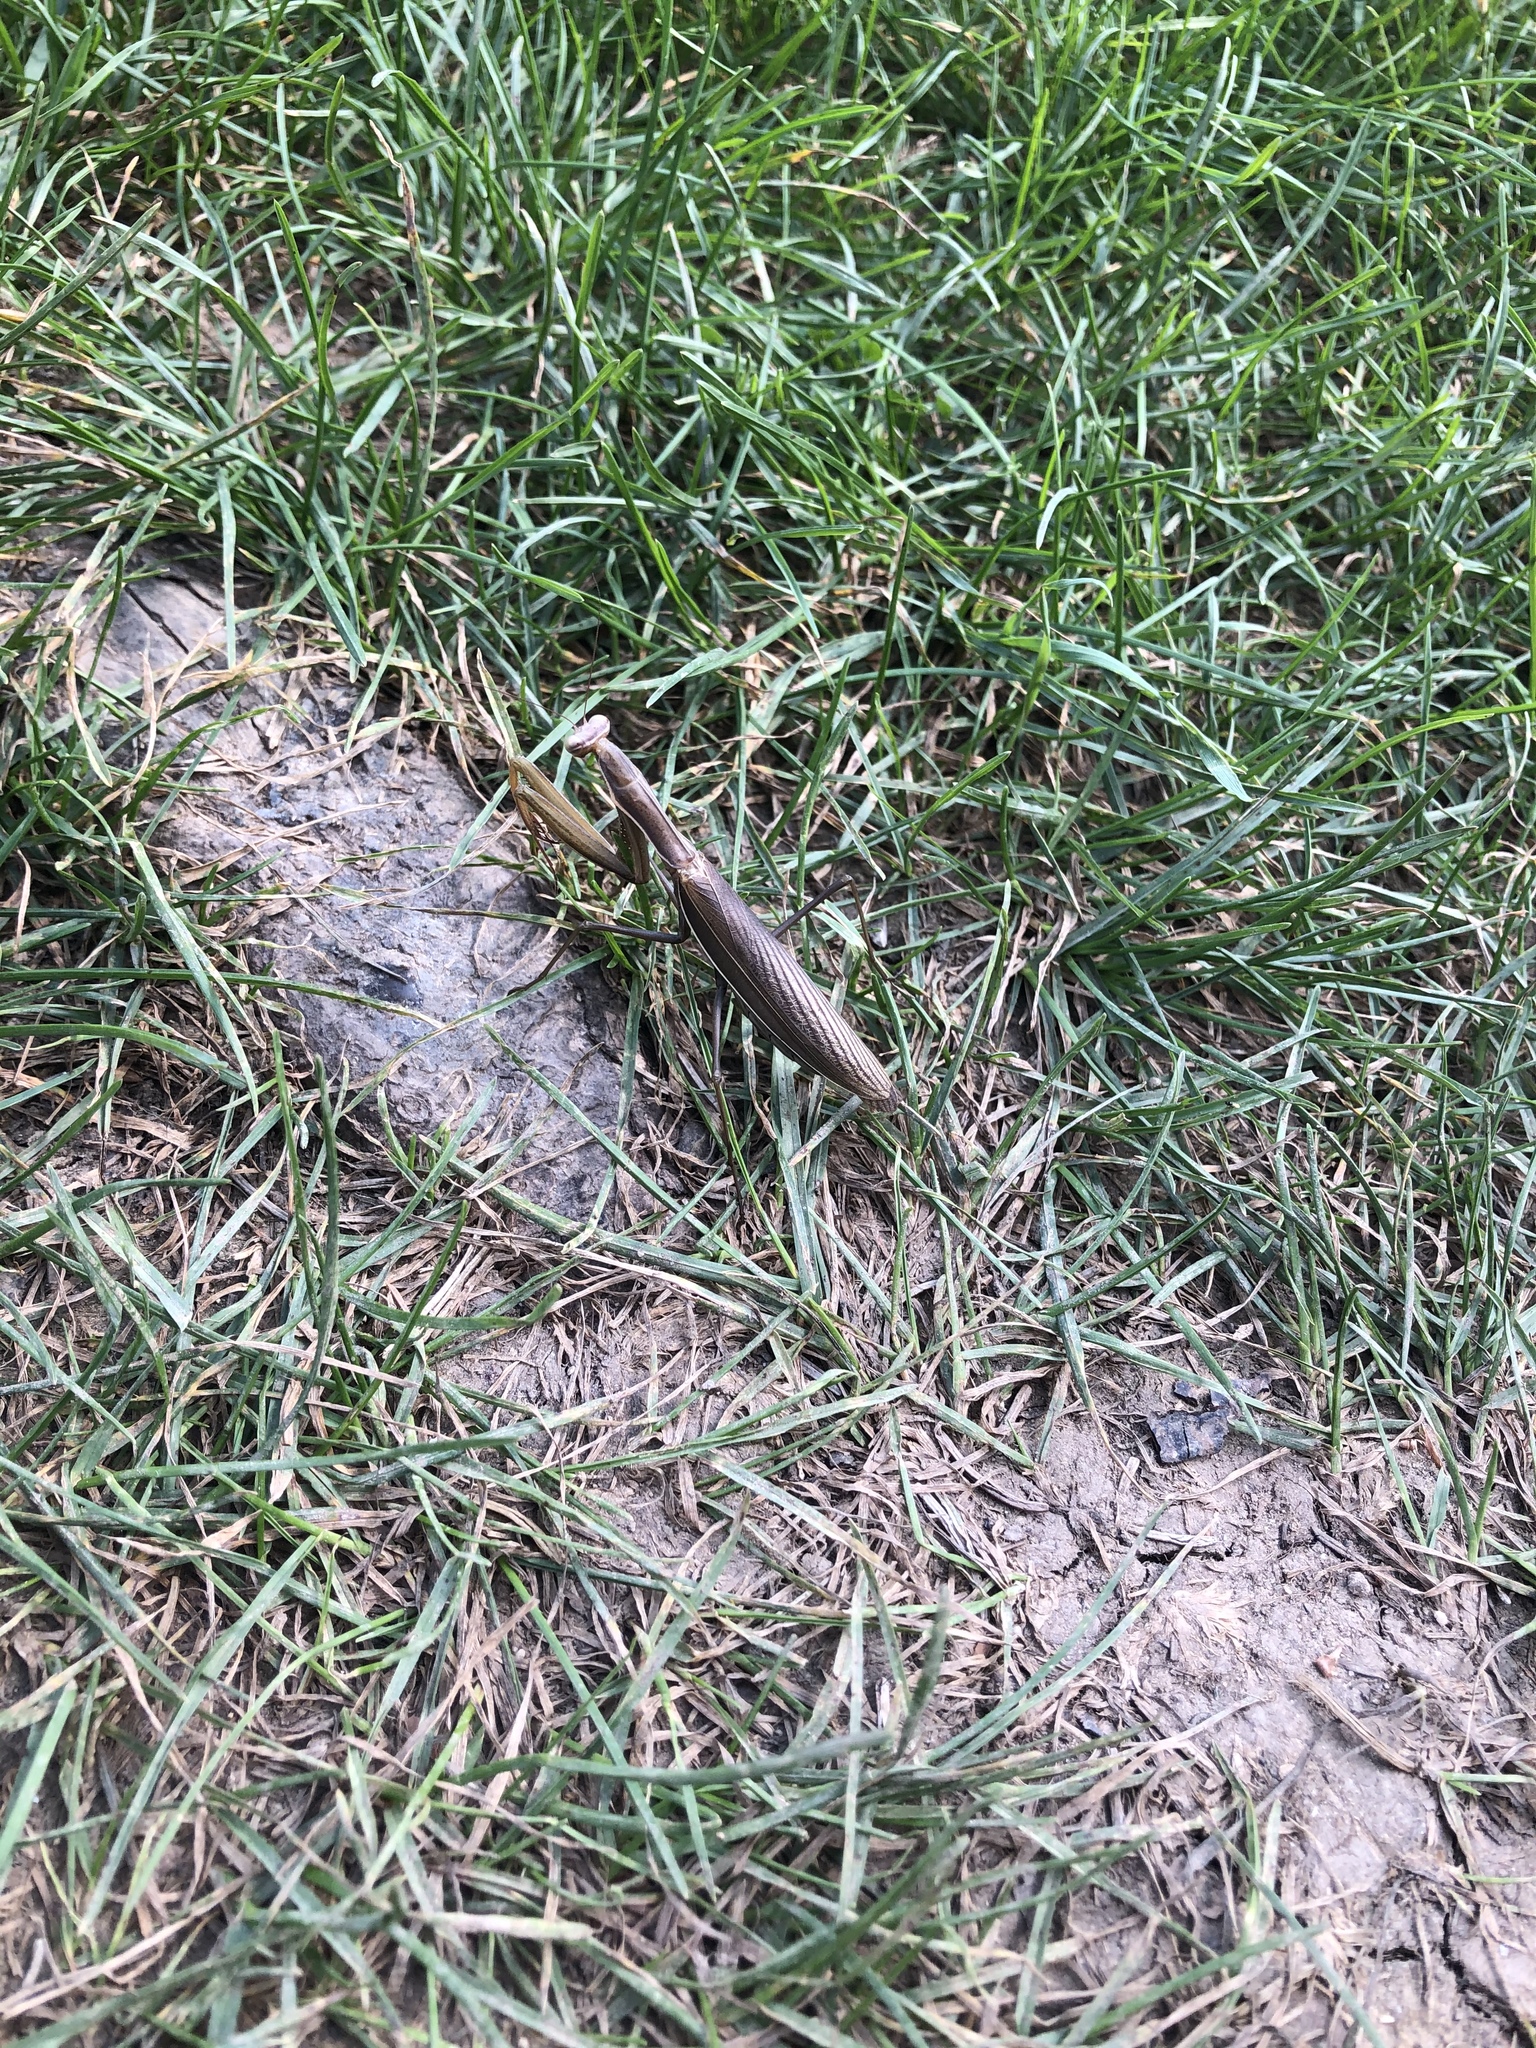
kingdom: Animalia
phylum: Arthropoda
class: Insecta
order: Mantodea
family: Mantidae
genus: Mantis
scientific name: Mantis religiosa
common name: Praying mantis
